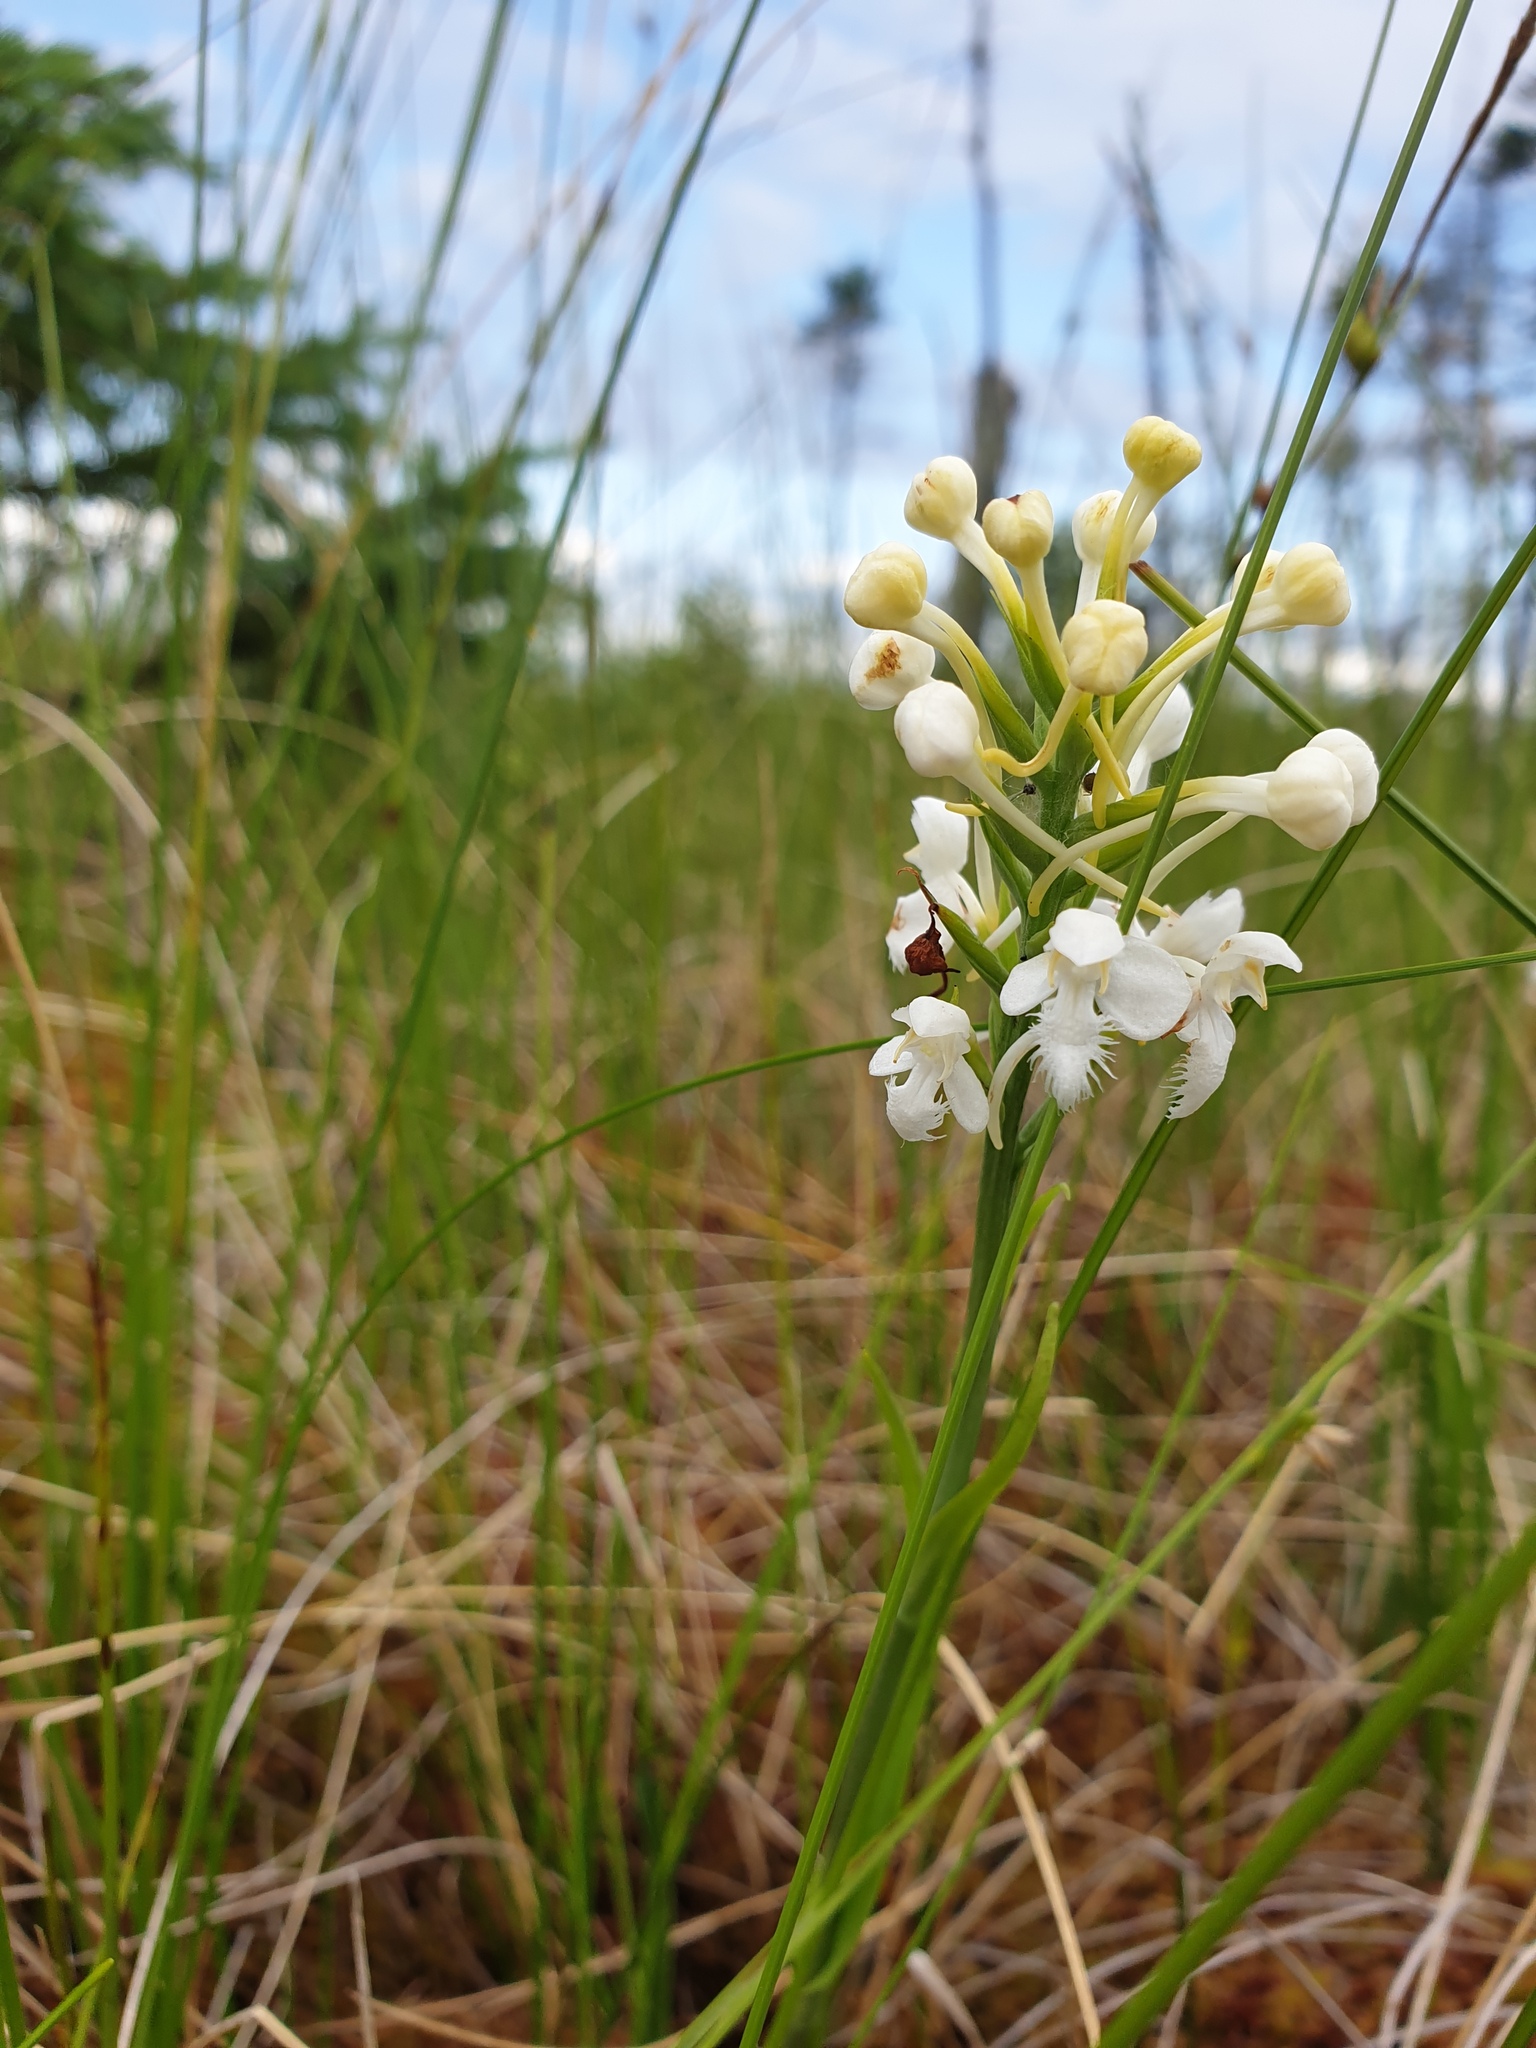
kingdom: Plantae
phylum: Tracheophyta
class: Liliopsida
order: Asparagales
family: Orchidaceae
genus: Platanthera
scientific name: Platanthera blephariglottis
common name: White fringed orchid
